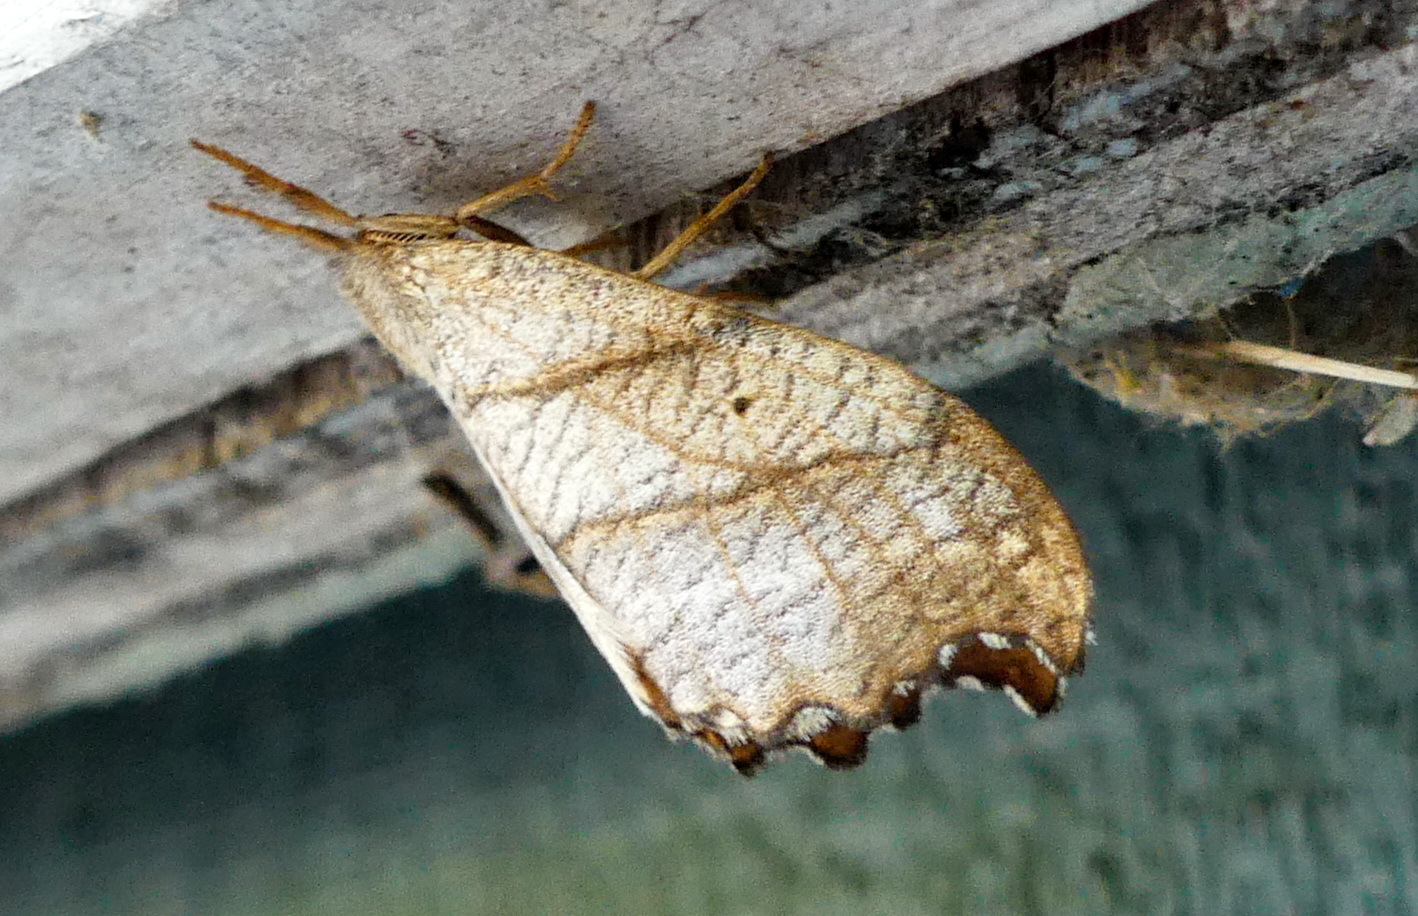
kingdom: Animalia
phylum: Arthropoda
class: Insecta
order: Lepidoptera
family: Drepanidae
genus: Falcaria
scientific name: Falcaria bilineata
